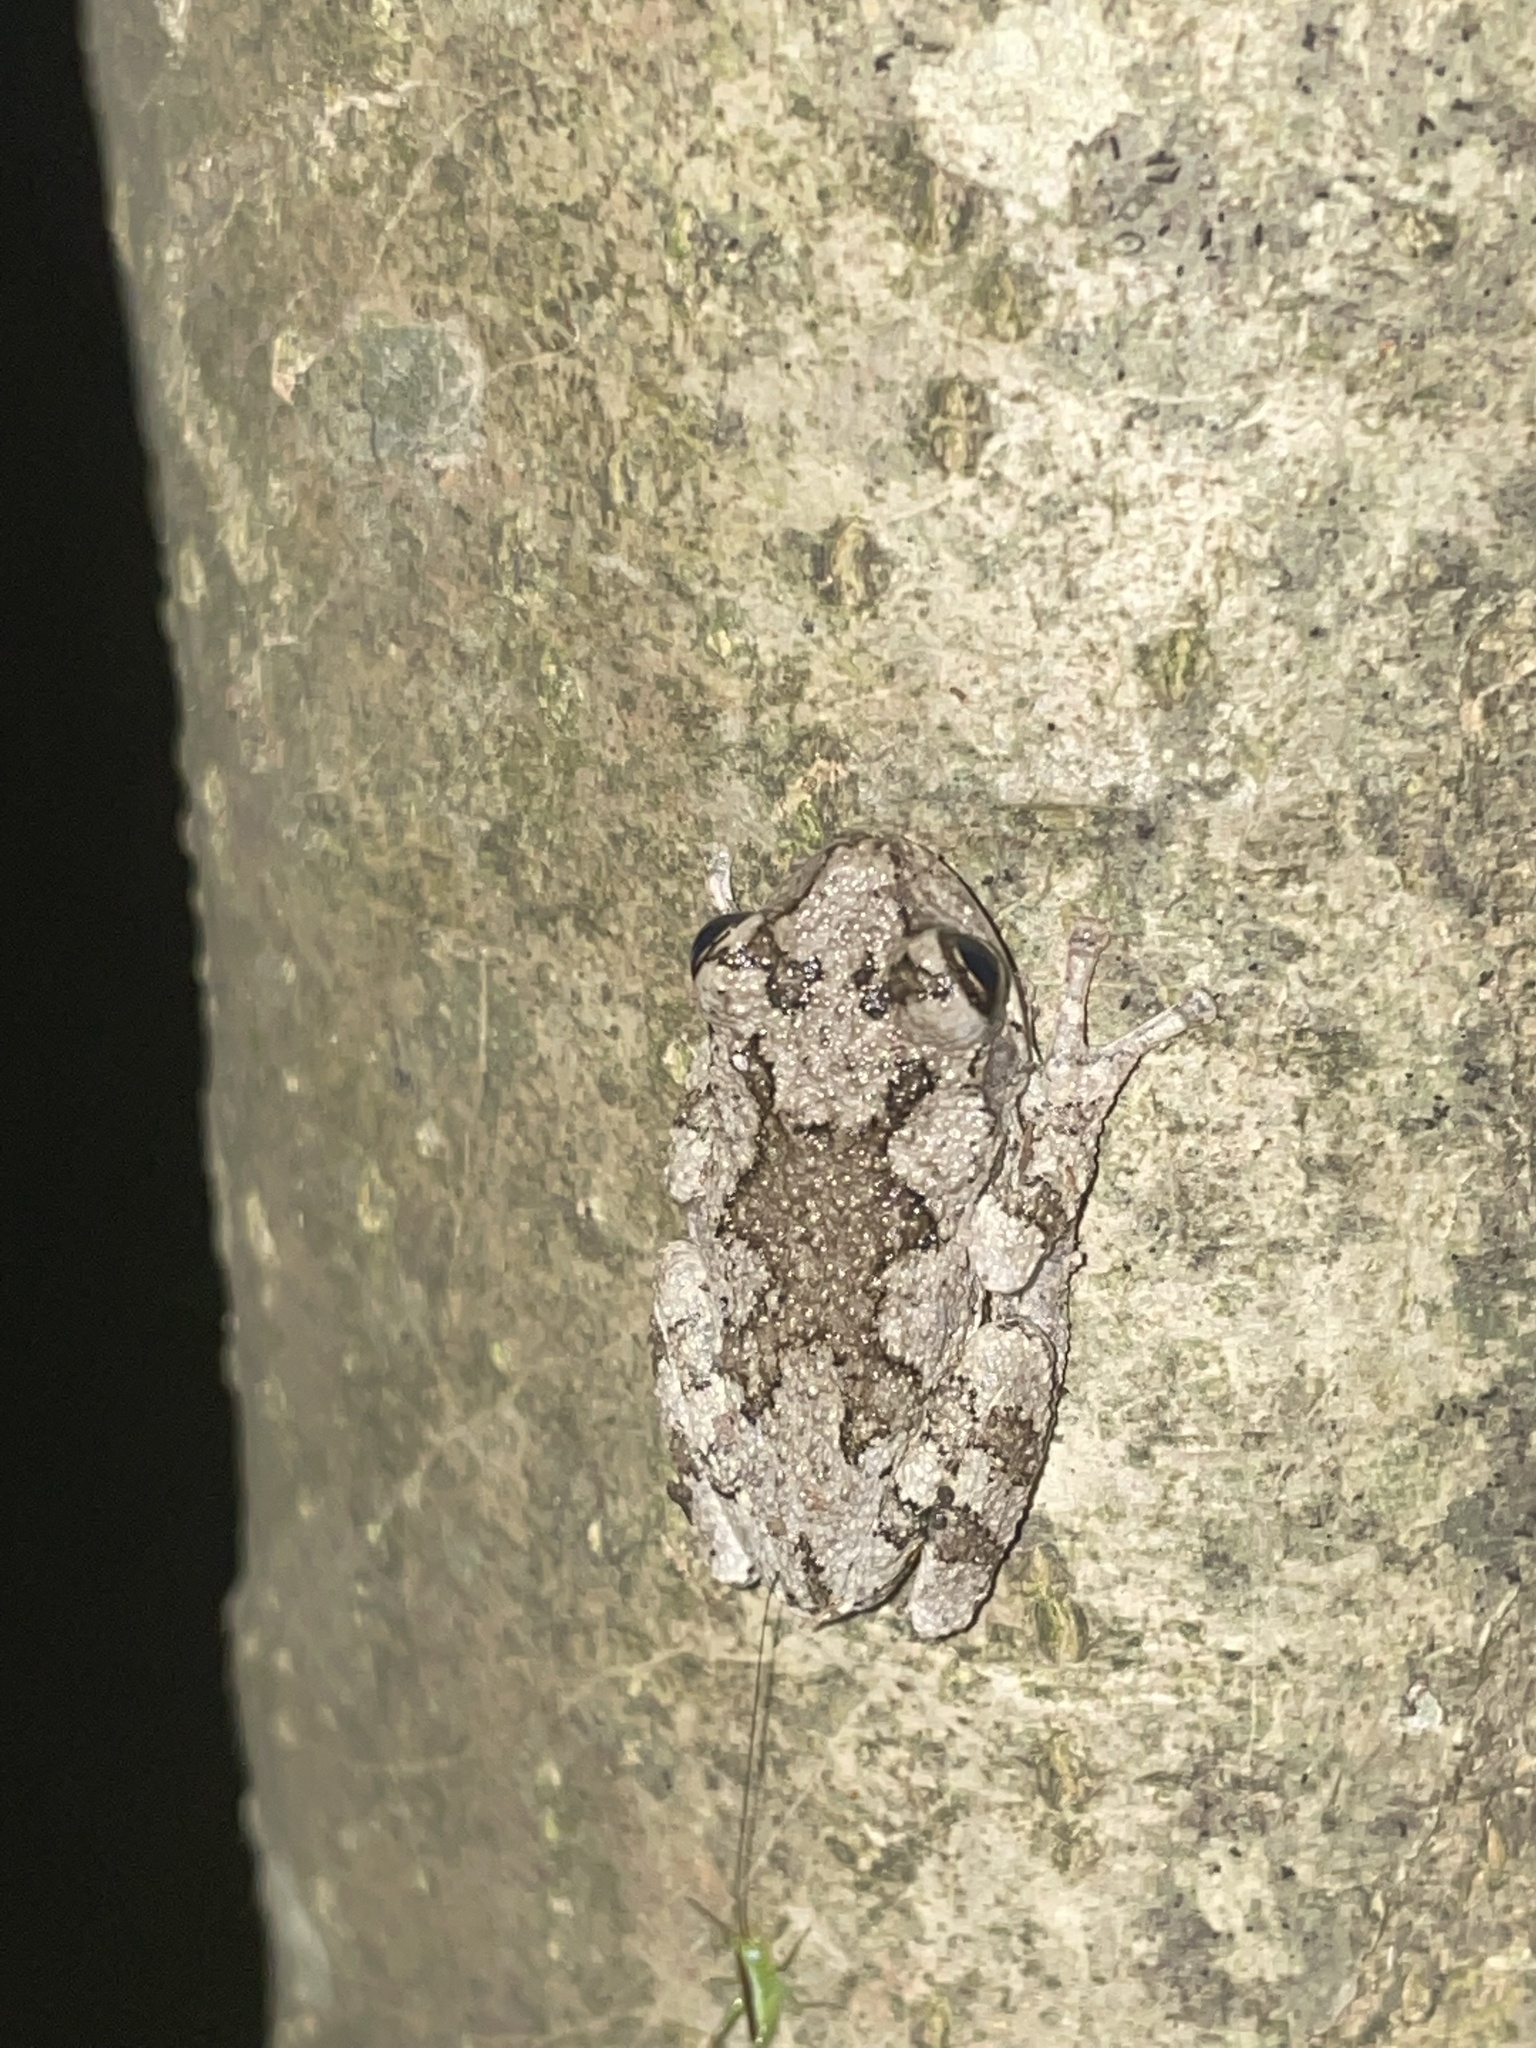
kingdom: Animalia
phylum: Chordata
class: Amphibia
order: Anura
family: Hylidae
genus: Hyla
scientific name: Hyla
